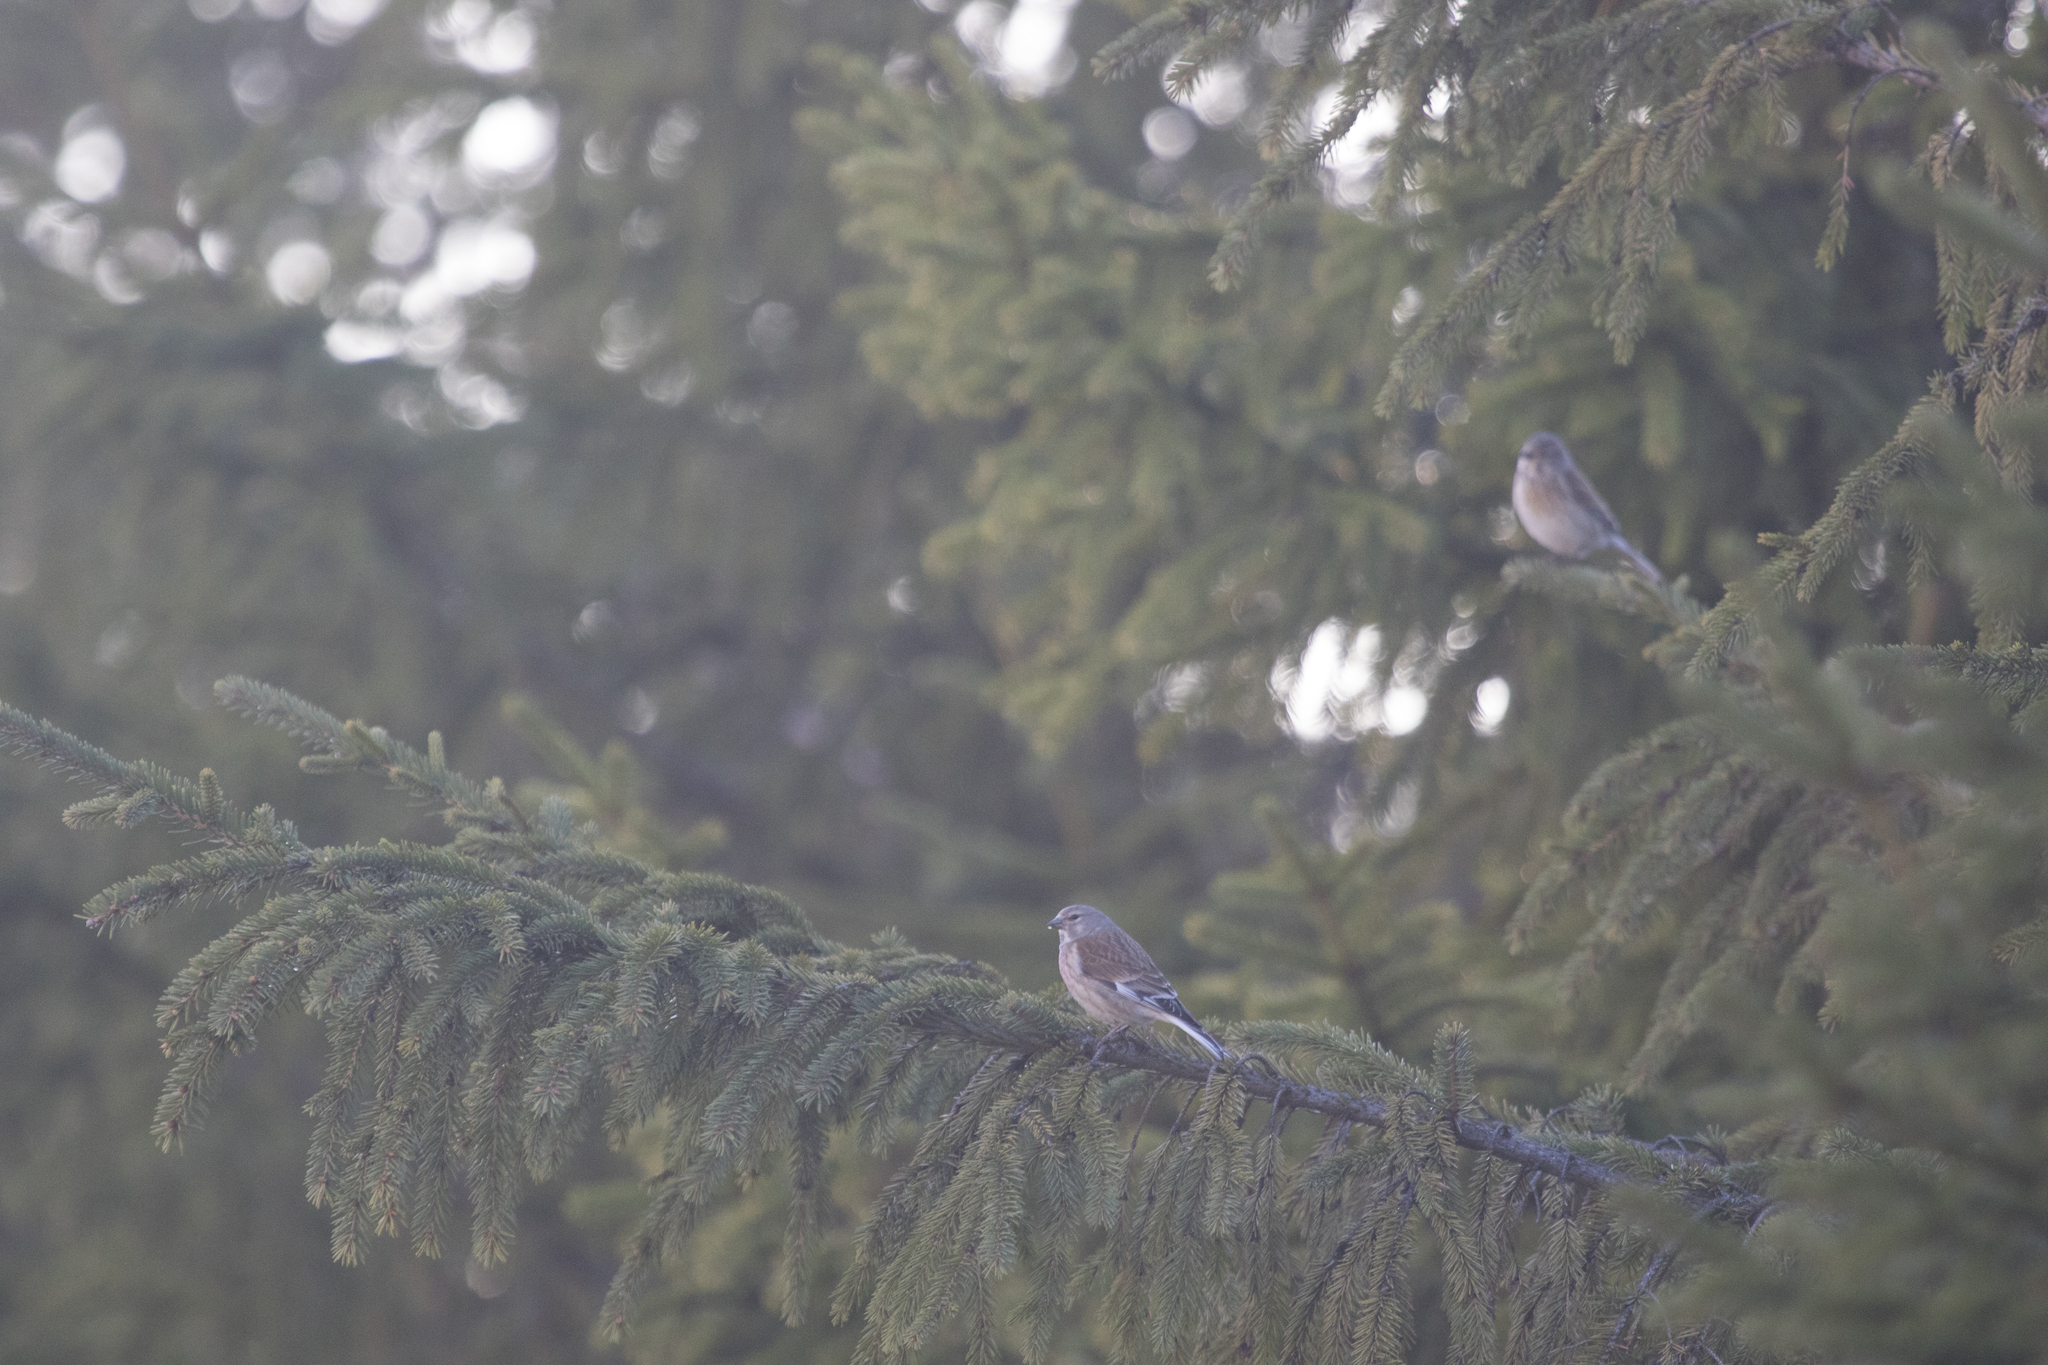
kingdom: Animalia
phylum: Chordata
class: Aves
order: Passeriformes
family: Fringillidae
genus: Linaria
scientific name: Linaria cannabina
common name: Common linnet
